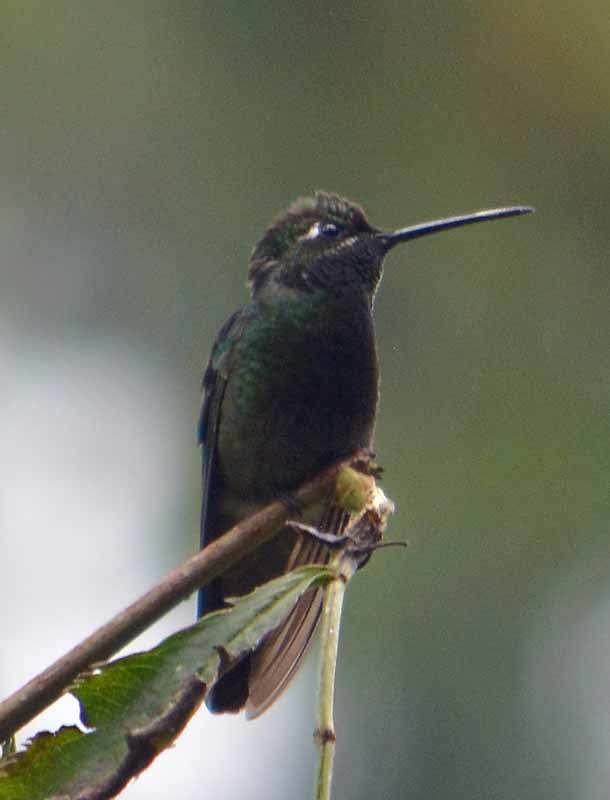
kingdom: Animalia
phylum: Chordata
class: Aves
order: Apodiformes
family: Trochilidae
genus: Eugenes
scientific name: Eugenes fulgens
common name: Magnificent hummingbird
